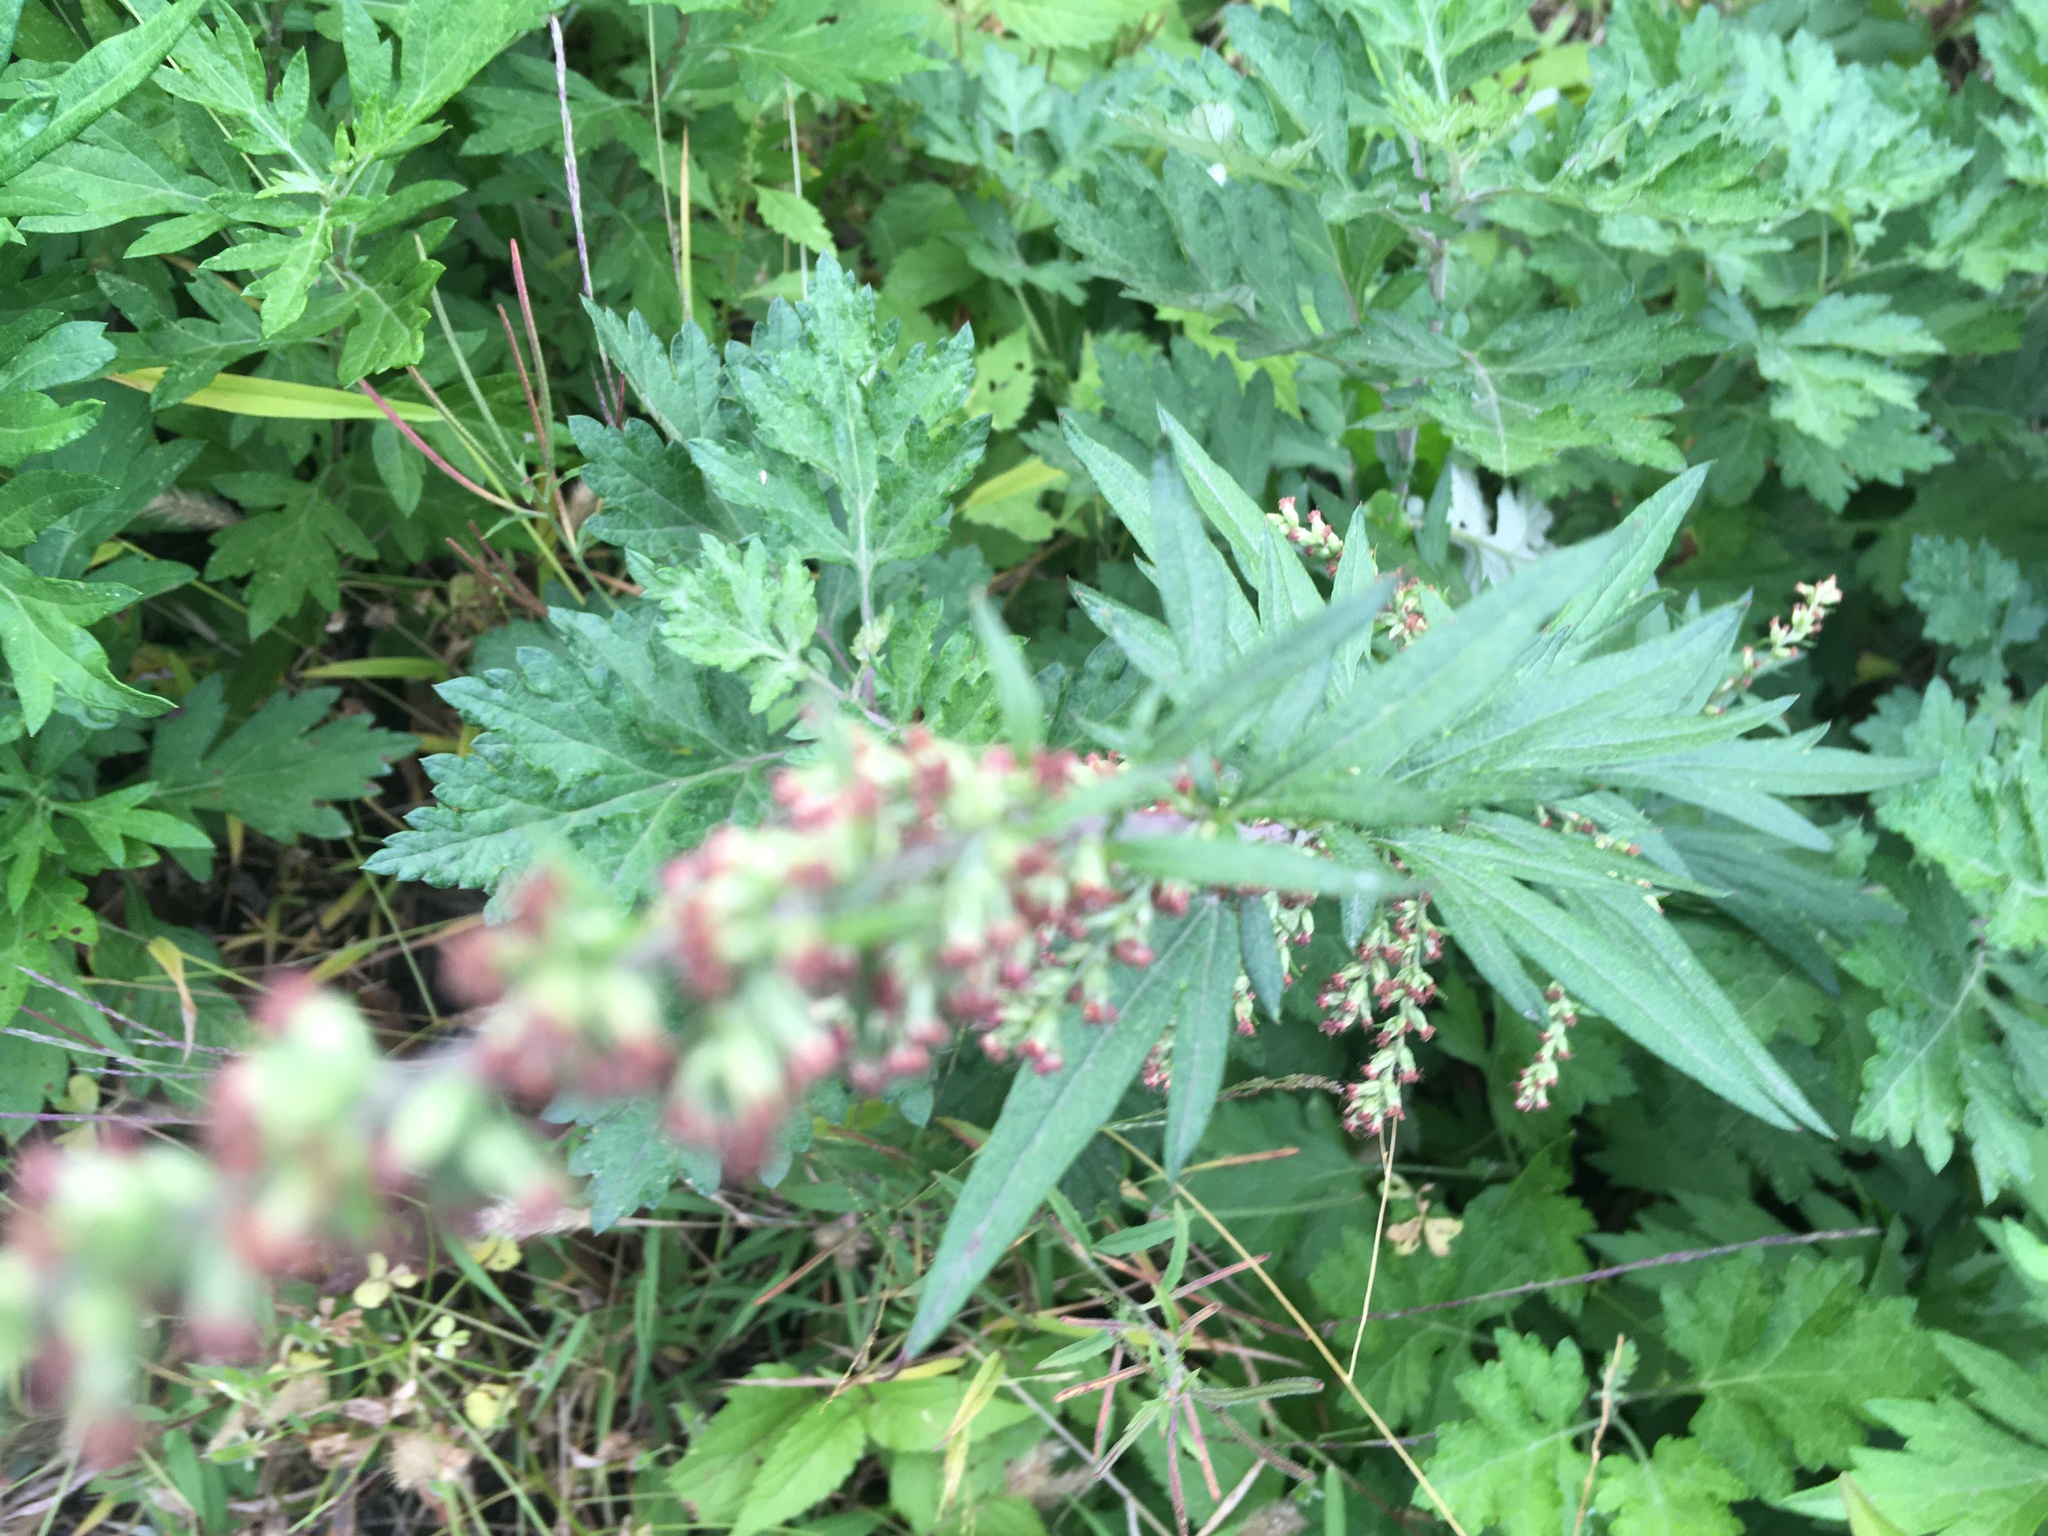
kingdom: Plantae
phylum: Tracheophyta
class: Magnoliopsida
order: Asterales
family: Asteraceae
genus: Artemisia
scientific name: Artemisia vulgaris
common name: Mugwort
